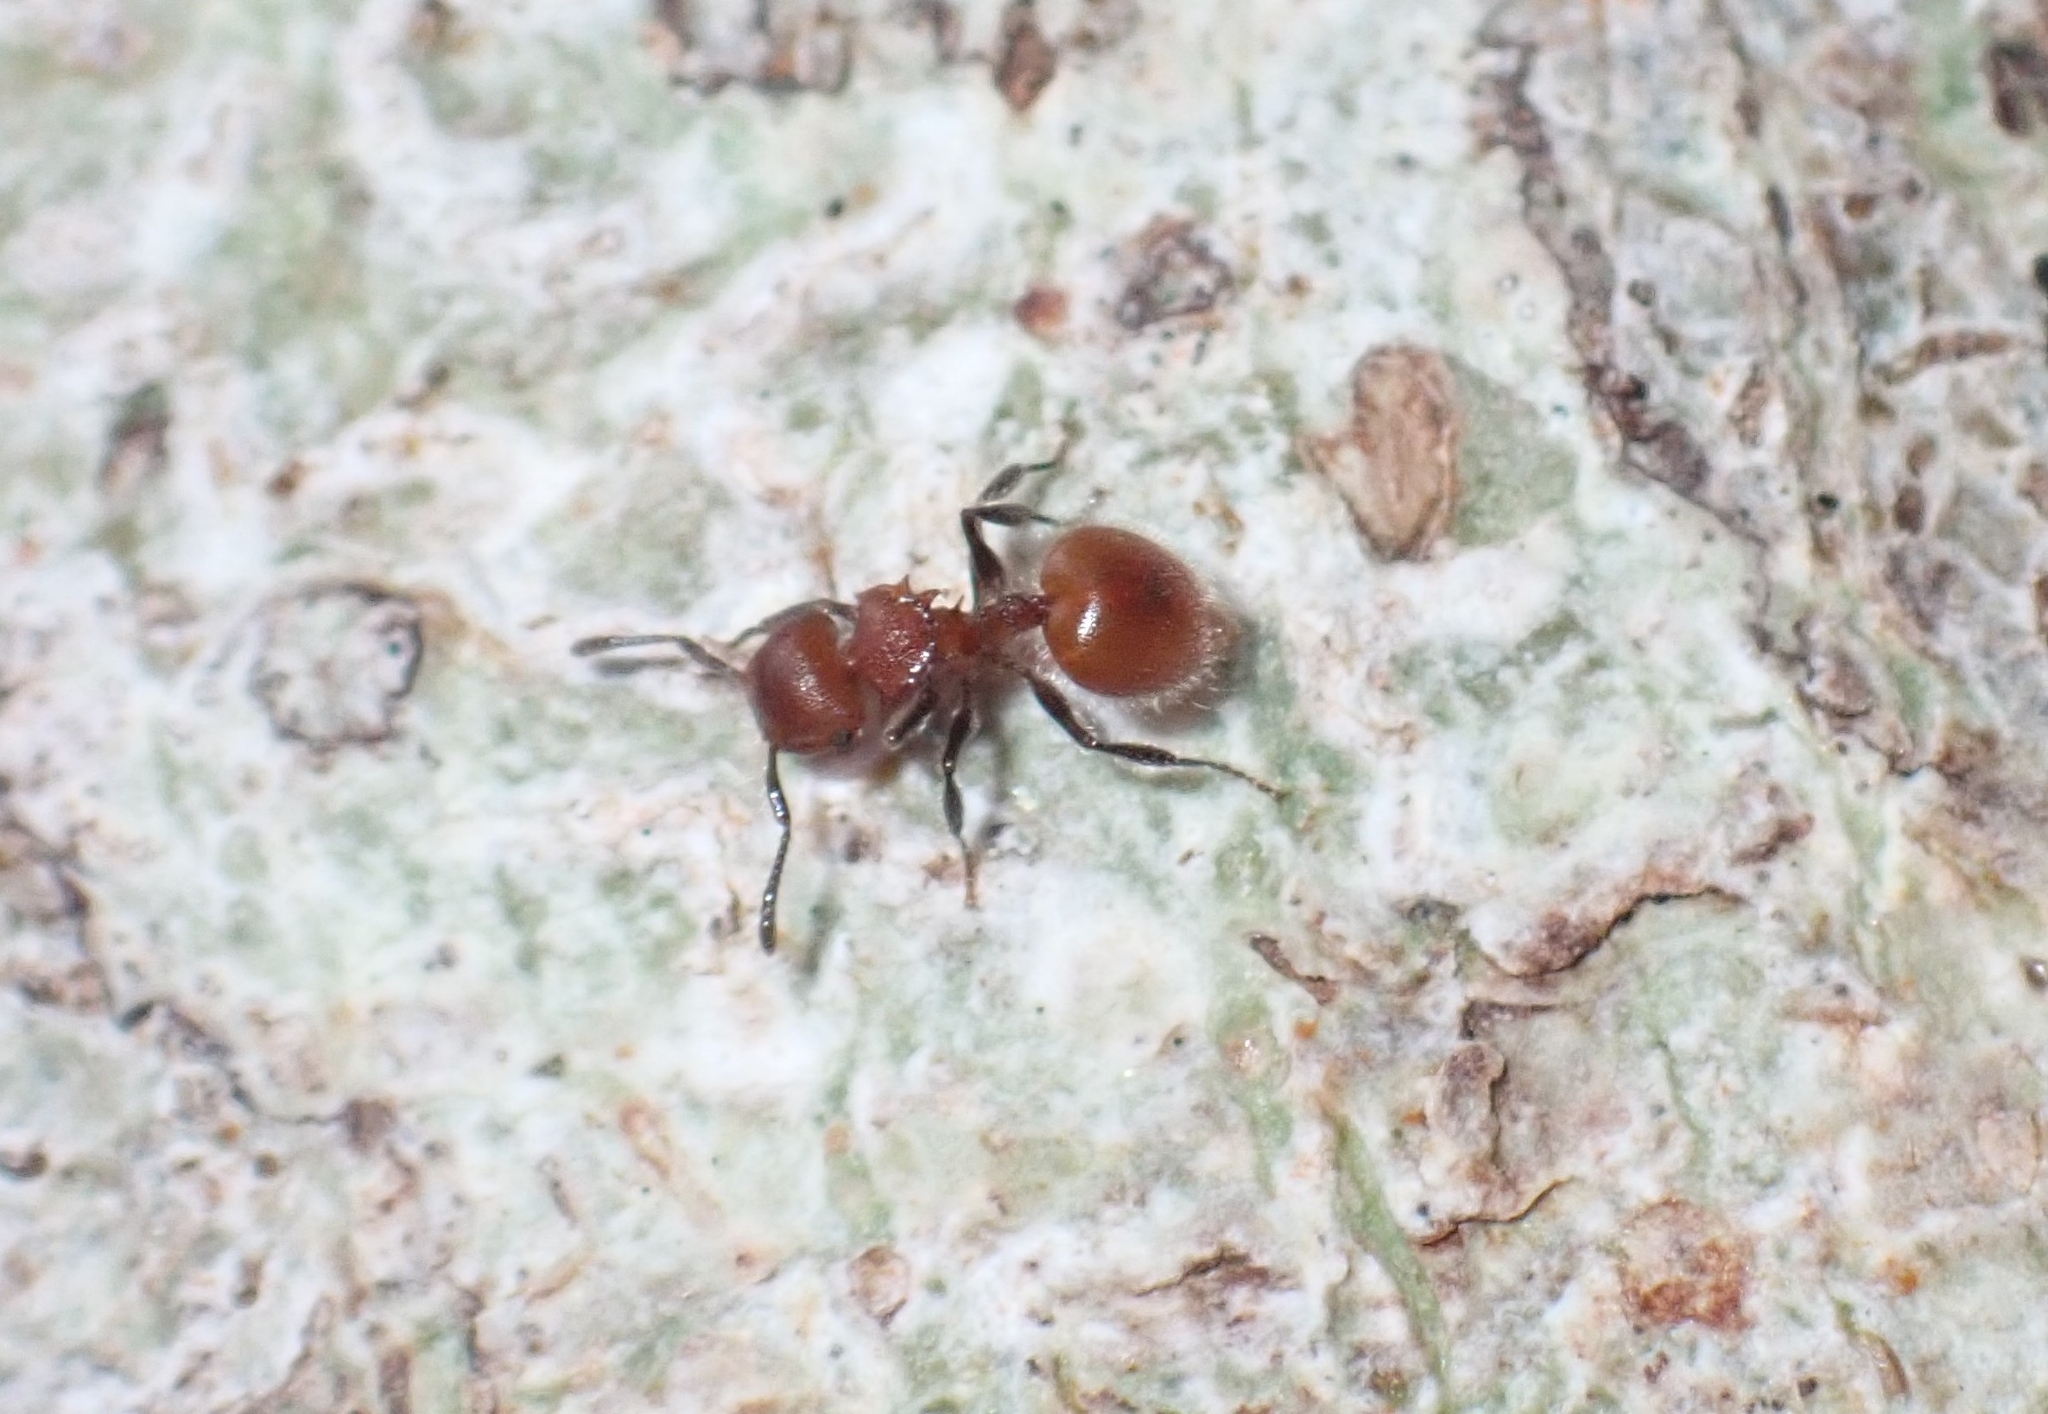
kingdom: Animalia
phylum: Arthropoda
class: Insecta
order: Hymenoptera
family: Formicidae
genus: Meranoplus
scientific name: Meranoplus castaneus
